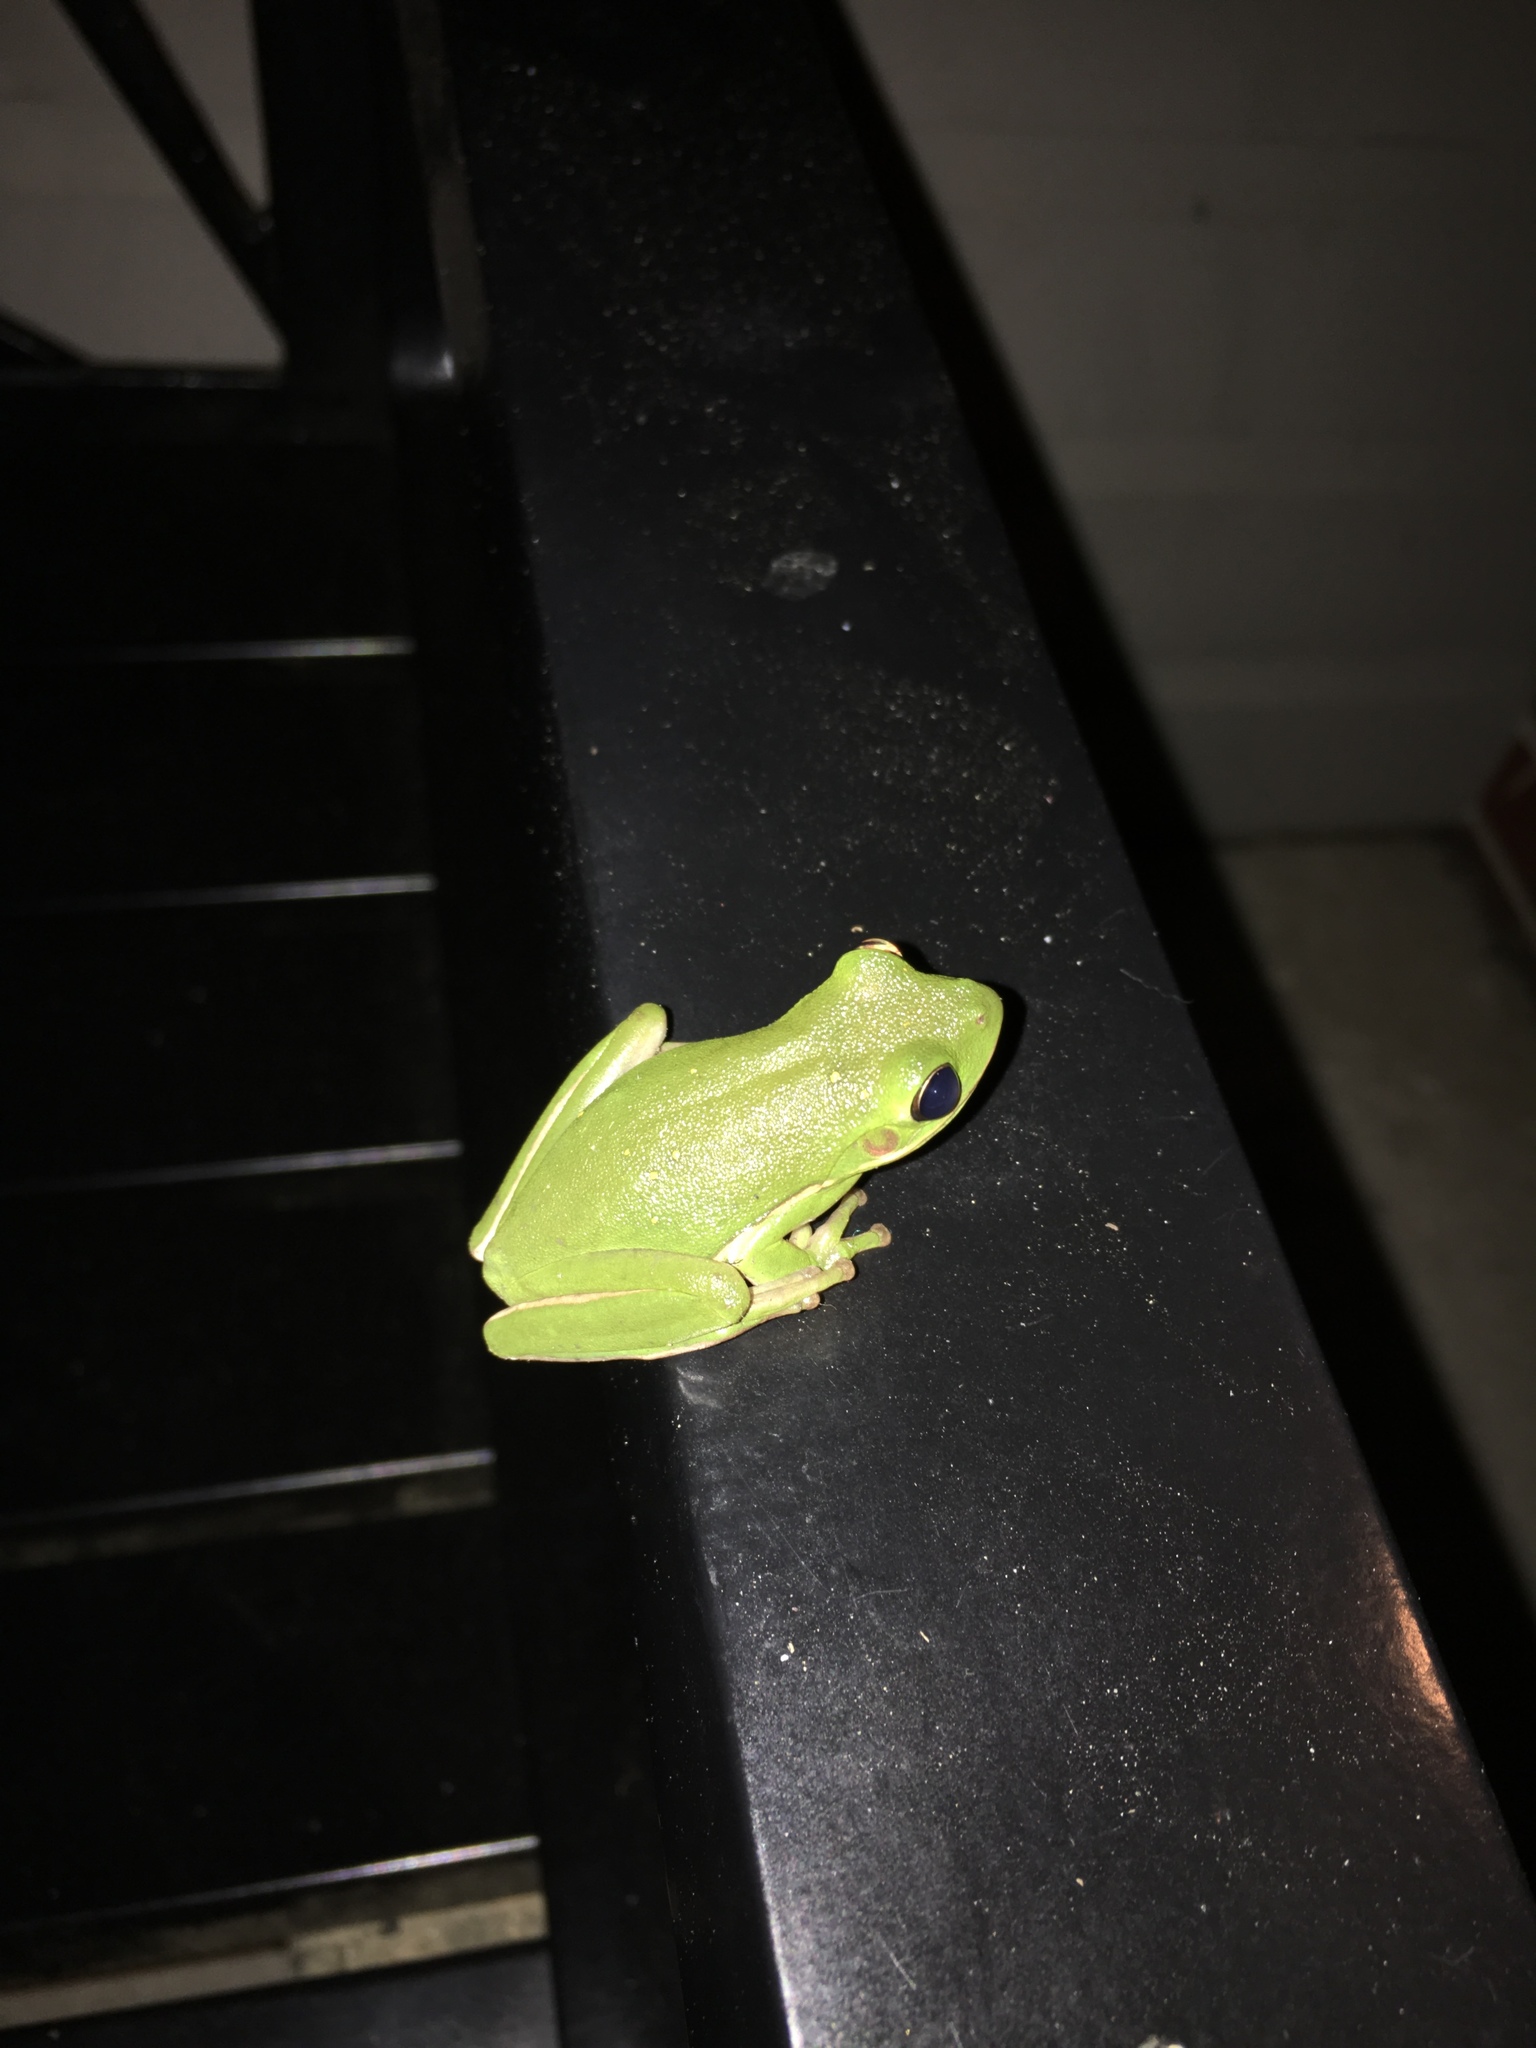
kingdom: Animalia
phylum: Chordata
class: Amphibia
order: Anura
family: Hylidae
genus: Dryophytes
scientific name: Dryophytes cinereus
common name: Green treefrog
